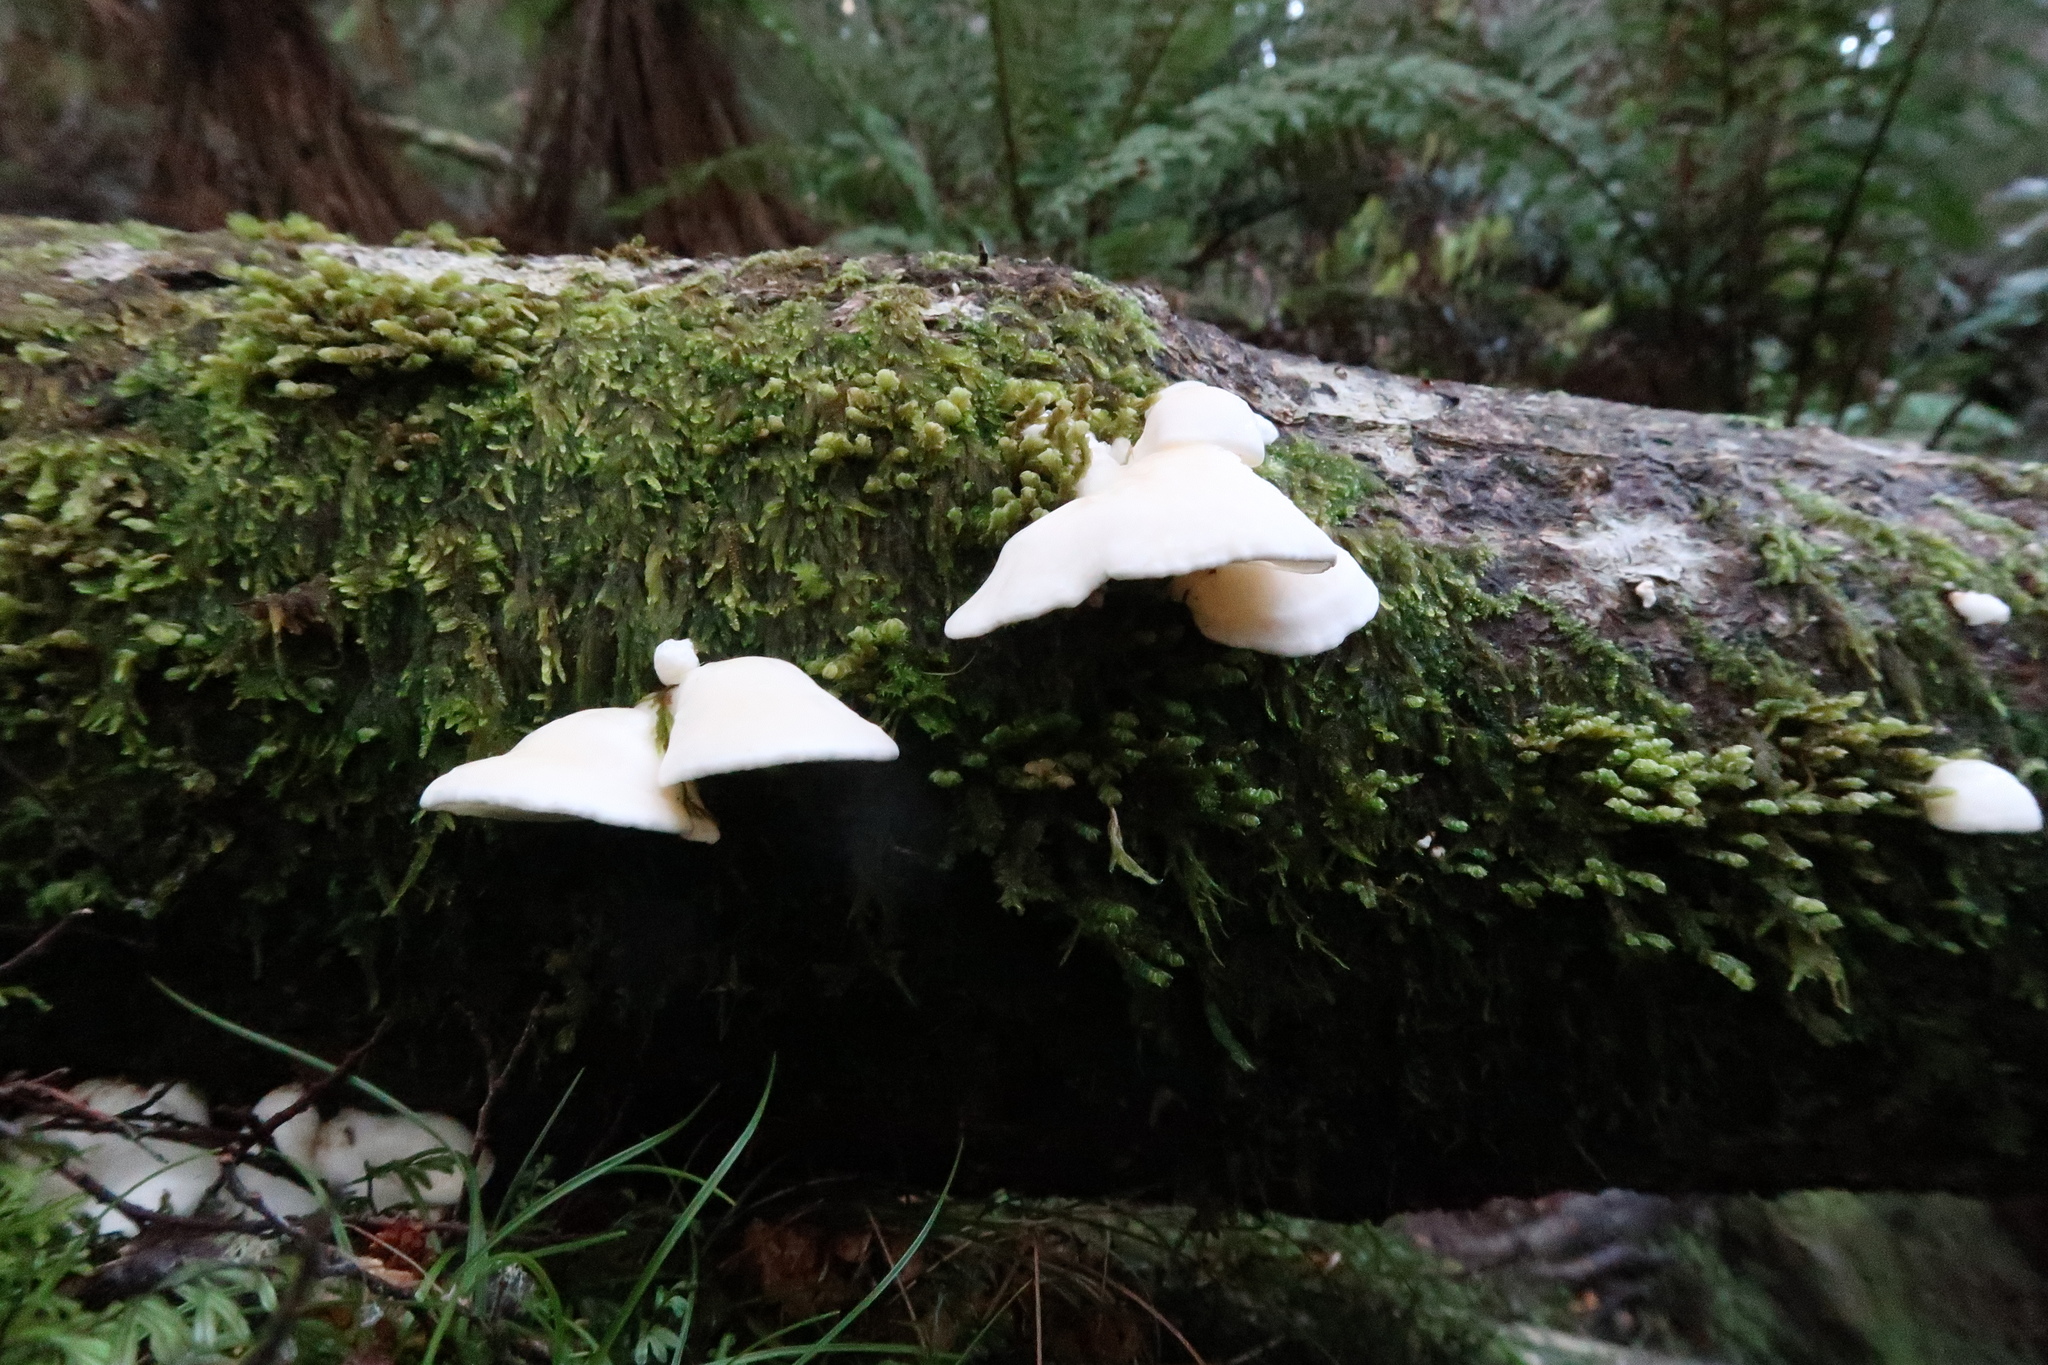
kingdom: Fungi
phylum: Basidiomycota
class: Agaricomycetes
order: Polyporales
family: Irpicaceae
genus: Gloeoporus
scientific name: Gloeoporus phlebophorus
